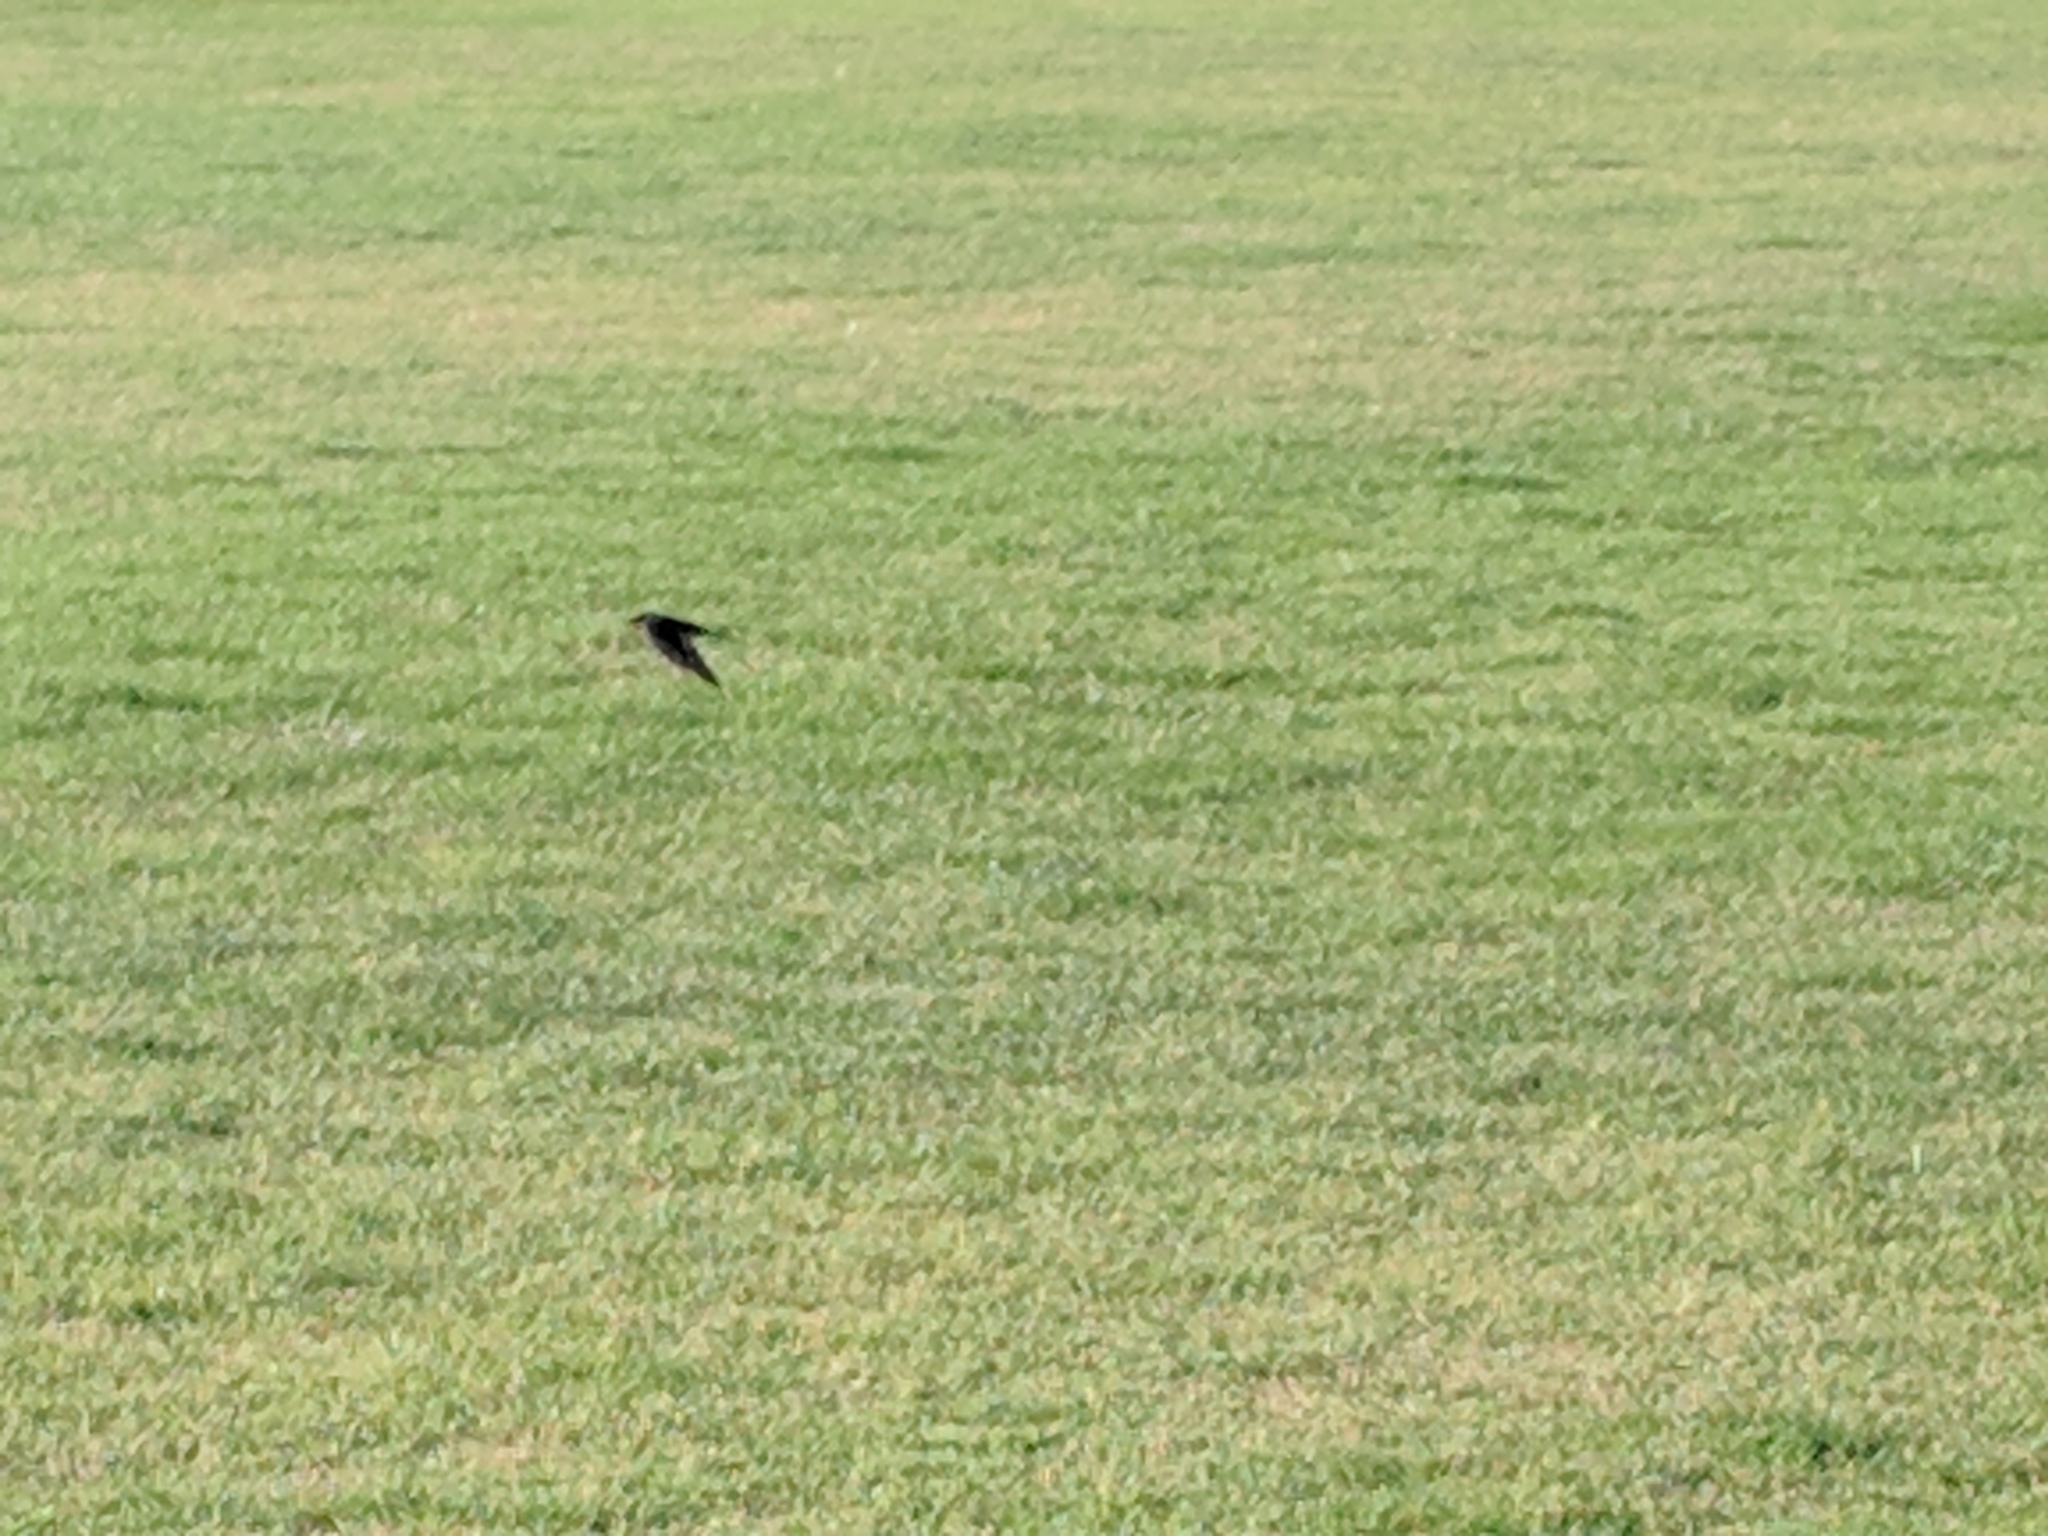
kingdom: Animalia
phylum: Chordata
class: Aves
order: Passeriformes
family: Hirundinidae
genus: Hirundo
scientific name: Hirundo neoxena
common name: Welcome swallow
